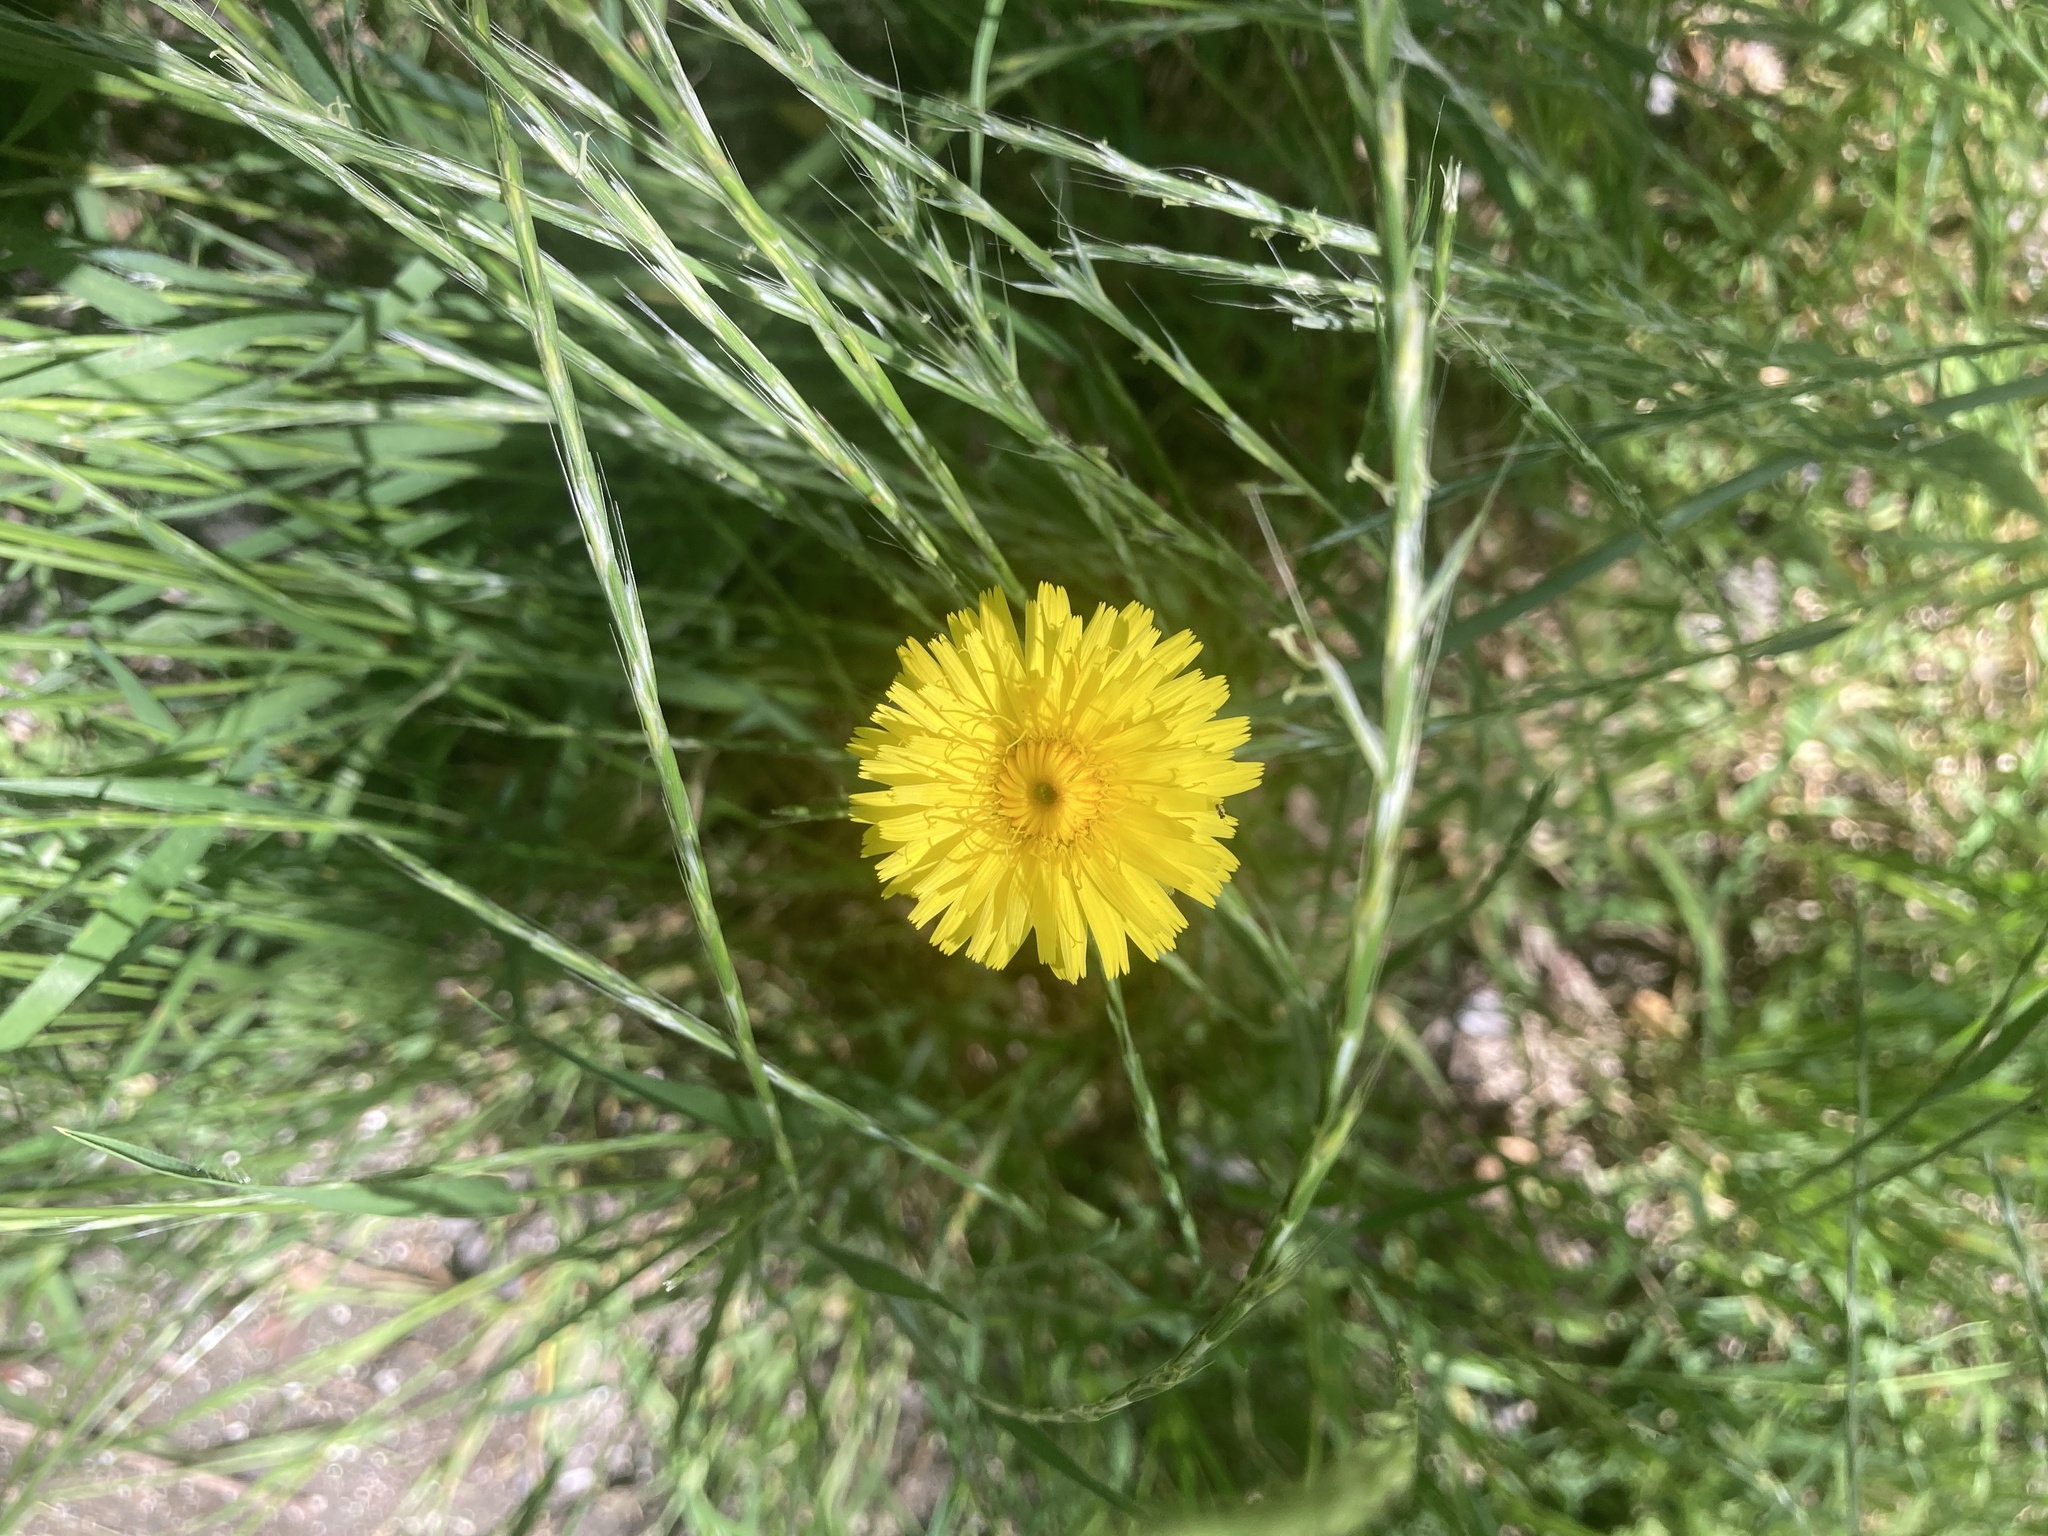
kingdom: Plantae
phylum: Tracheophyta
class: Magnoliopsida
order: Asterales
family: Asteraceae
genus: Hypochaeris
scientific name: Hypochaeris radicata
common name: Flatweed
